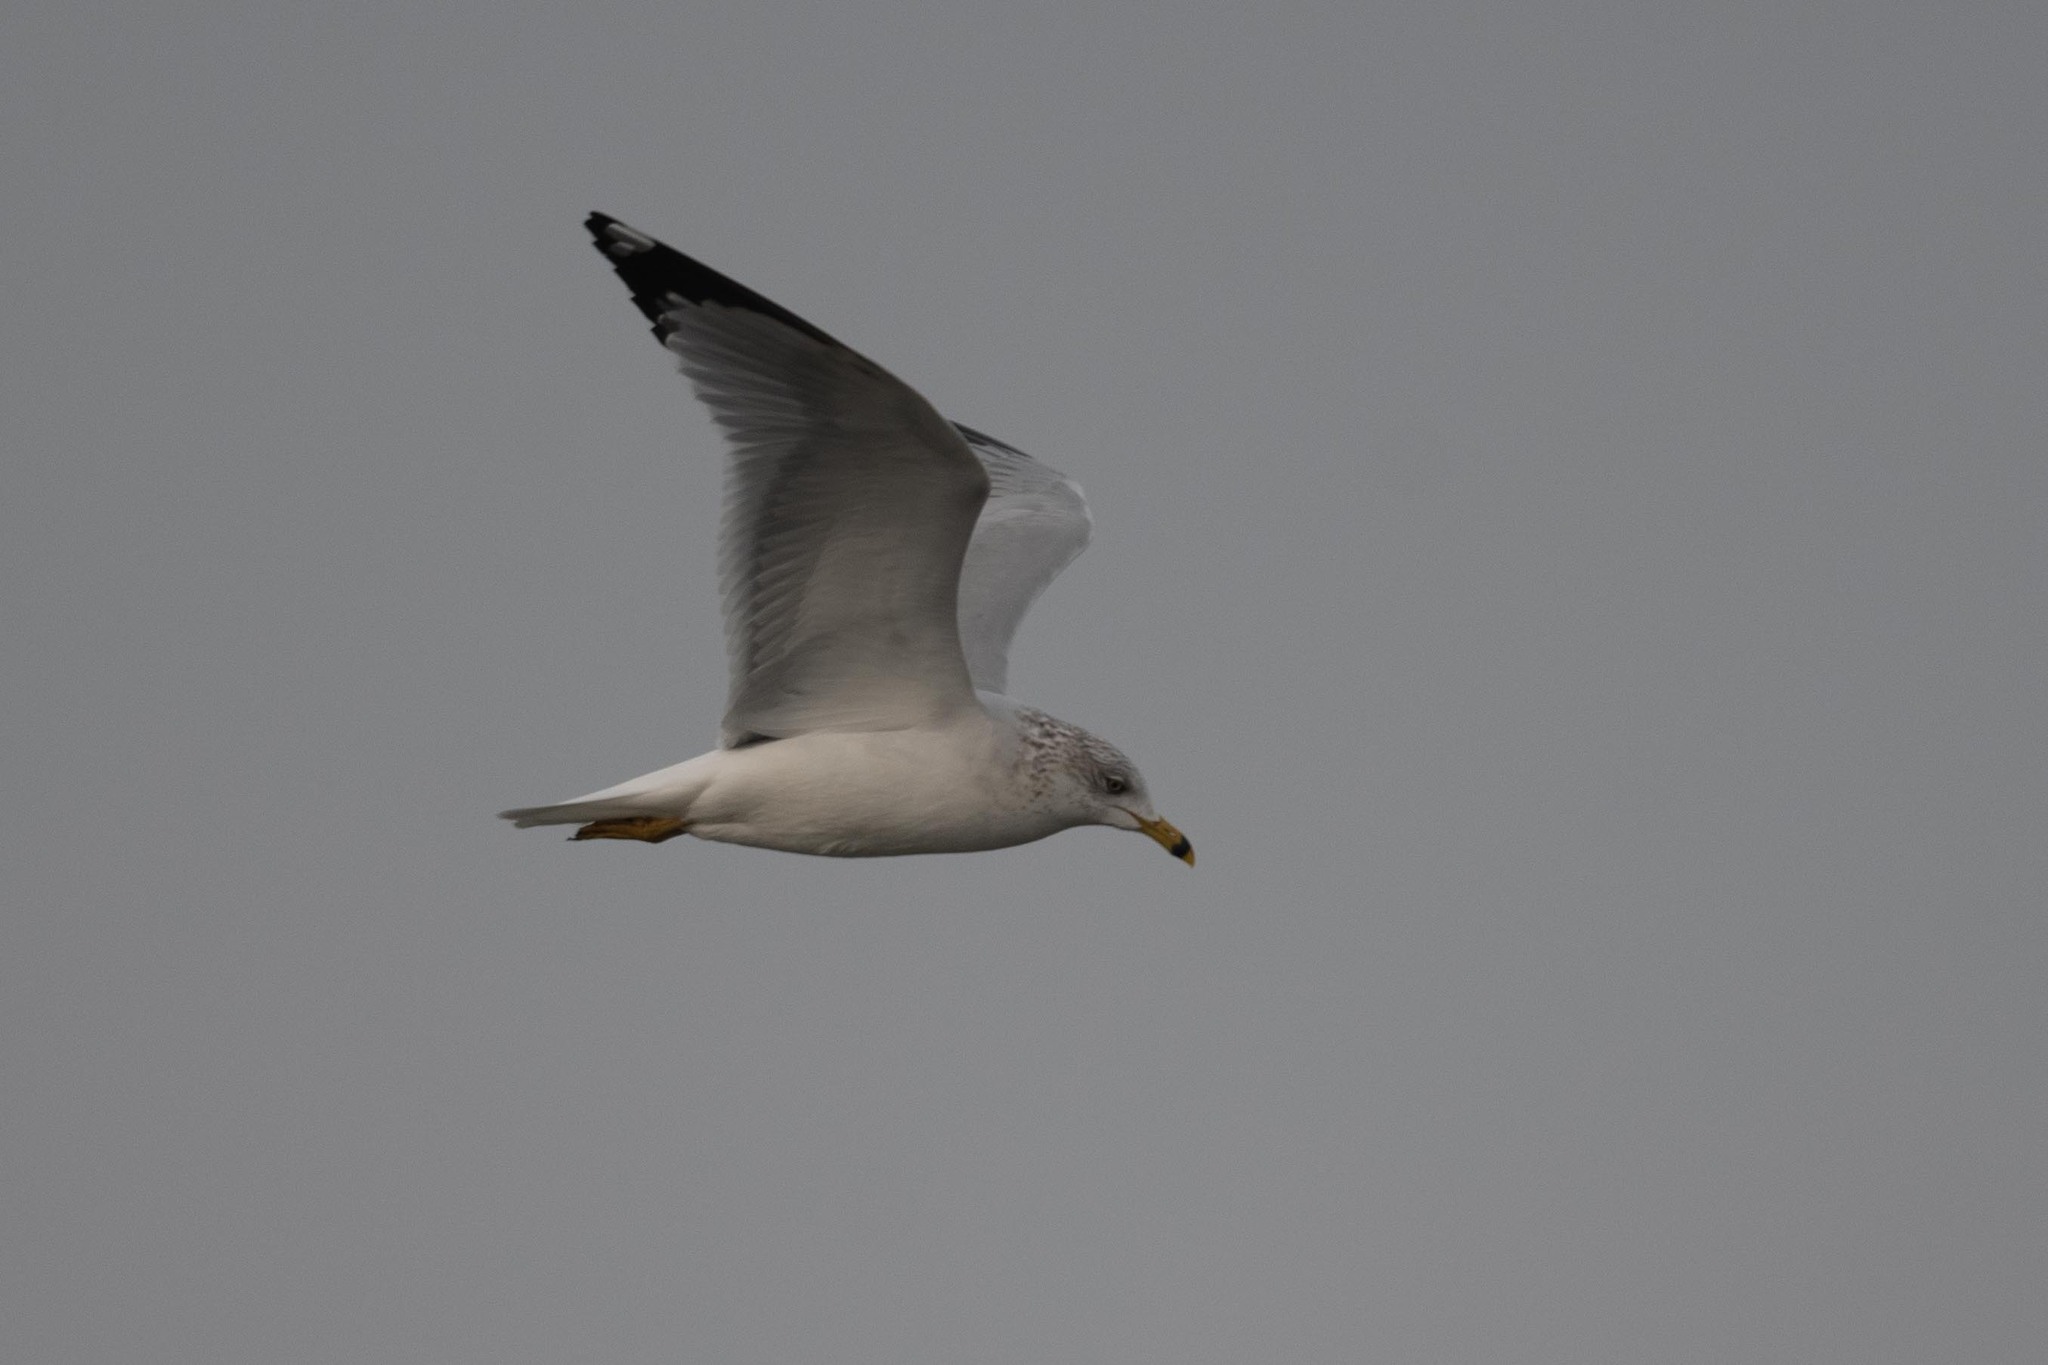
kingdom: Animalia
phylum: Chordata
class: Aves
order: Charadriiformes
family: Laridae
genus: Larus
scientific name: Larus delawarensis
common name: Ring-billed gull
